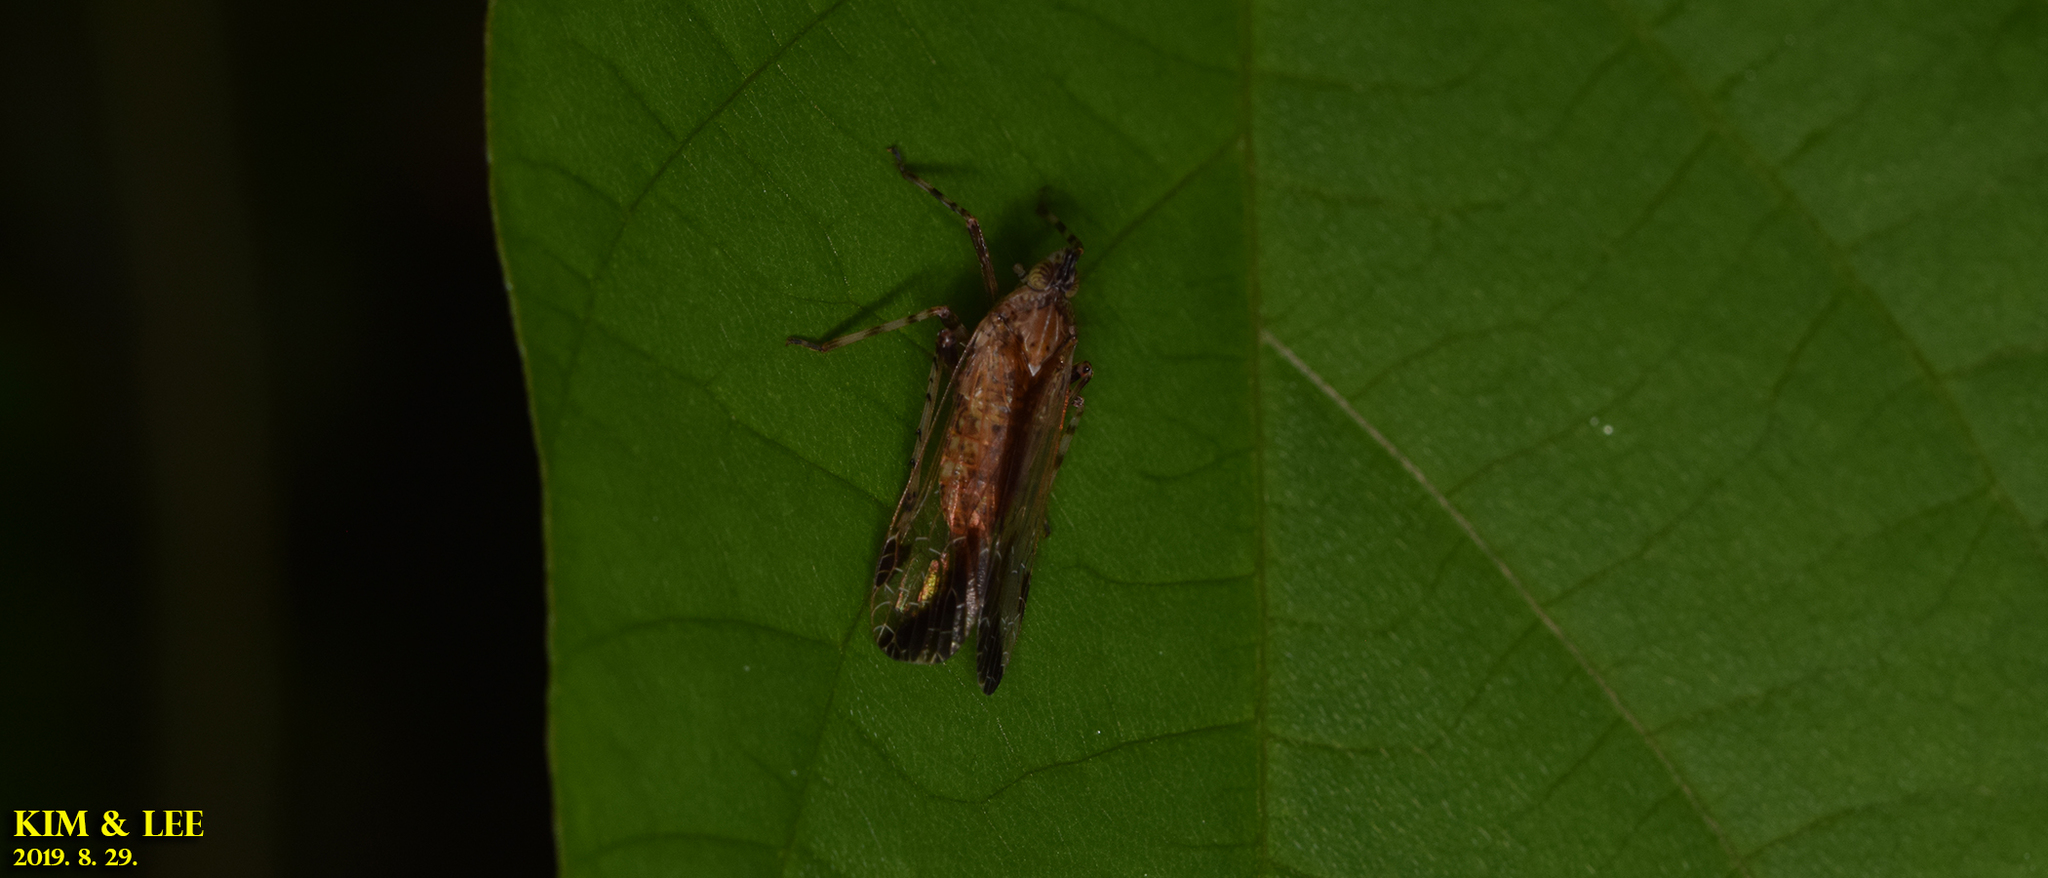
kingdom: Animalia
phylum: Arthropoda
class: Insecta
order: Hemiptera
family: Dictyopharidae
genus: Orthopagus
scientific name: Orthopagus lunulifer
